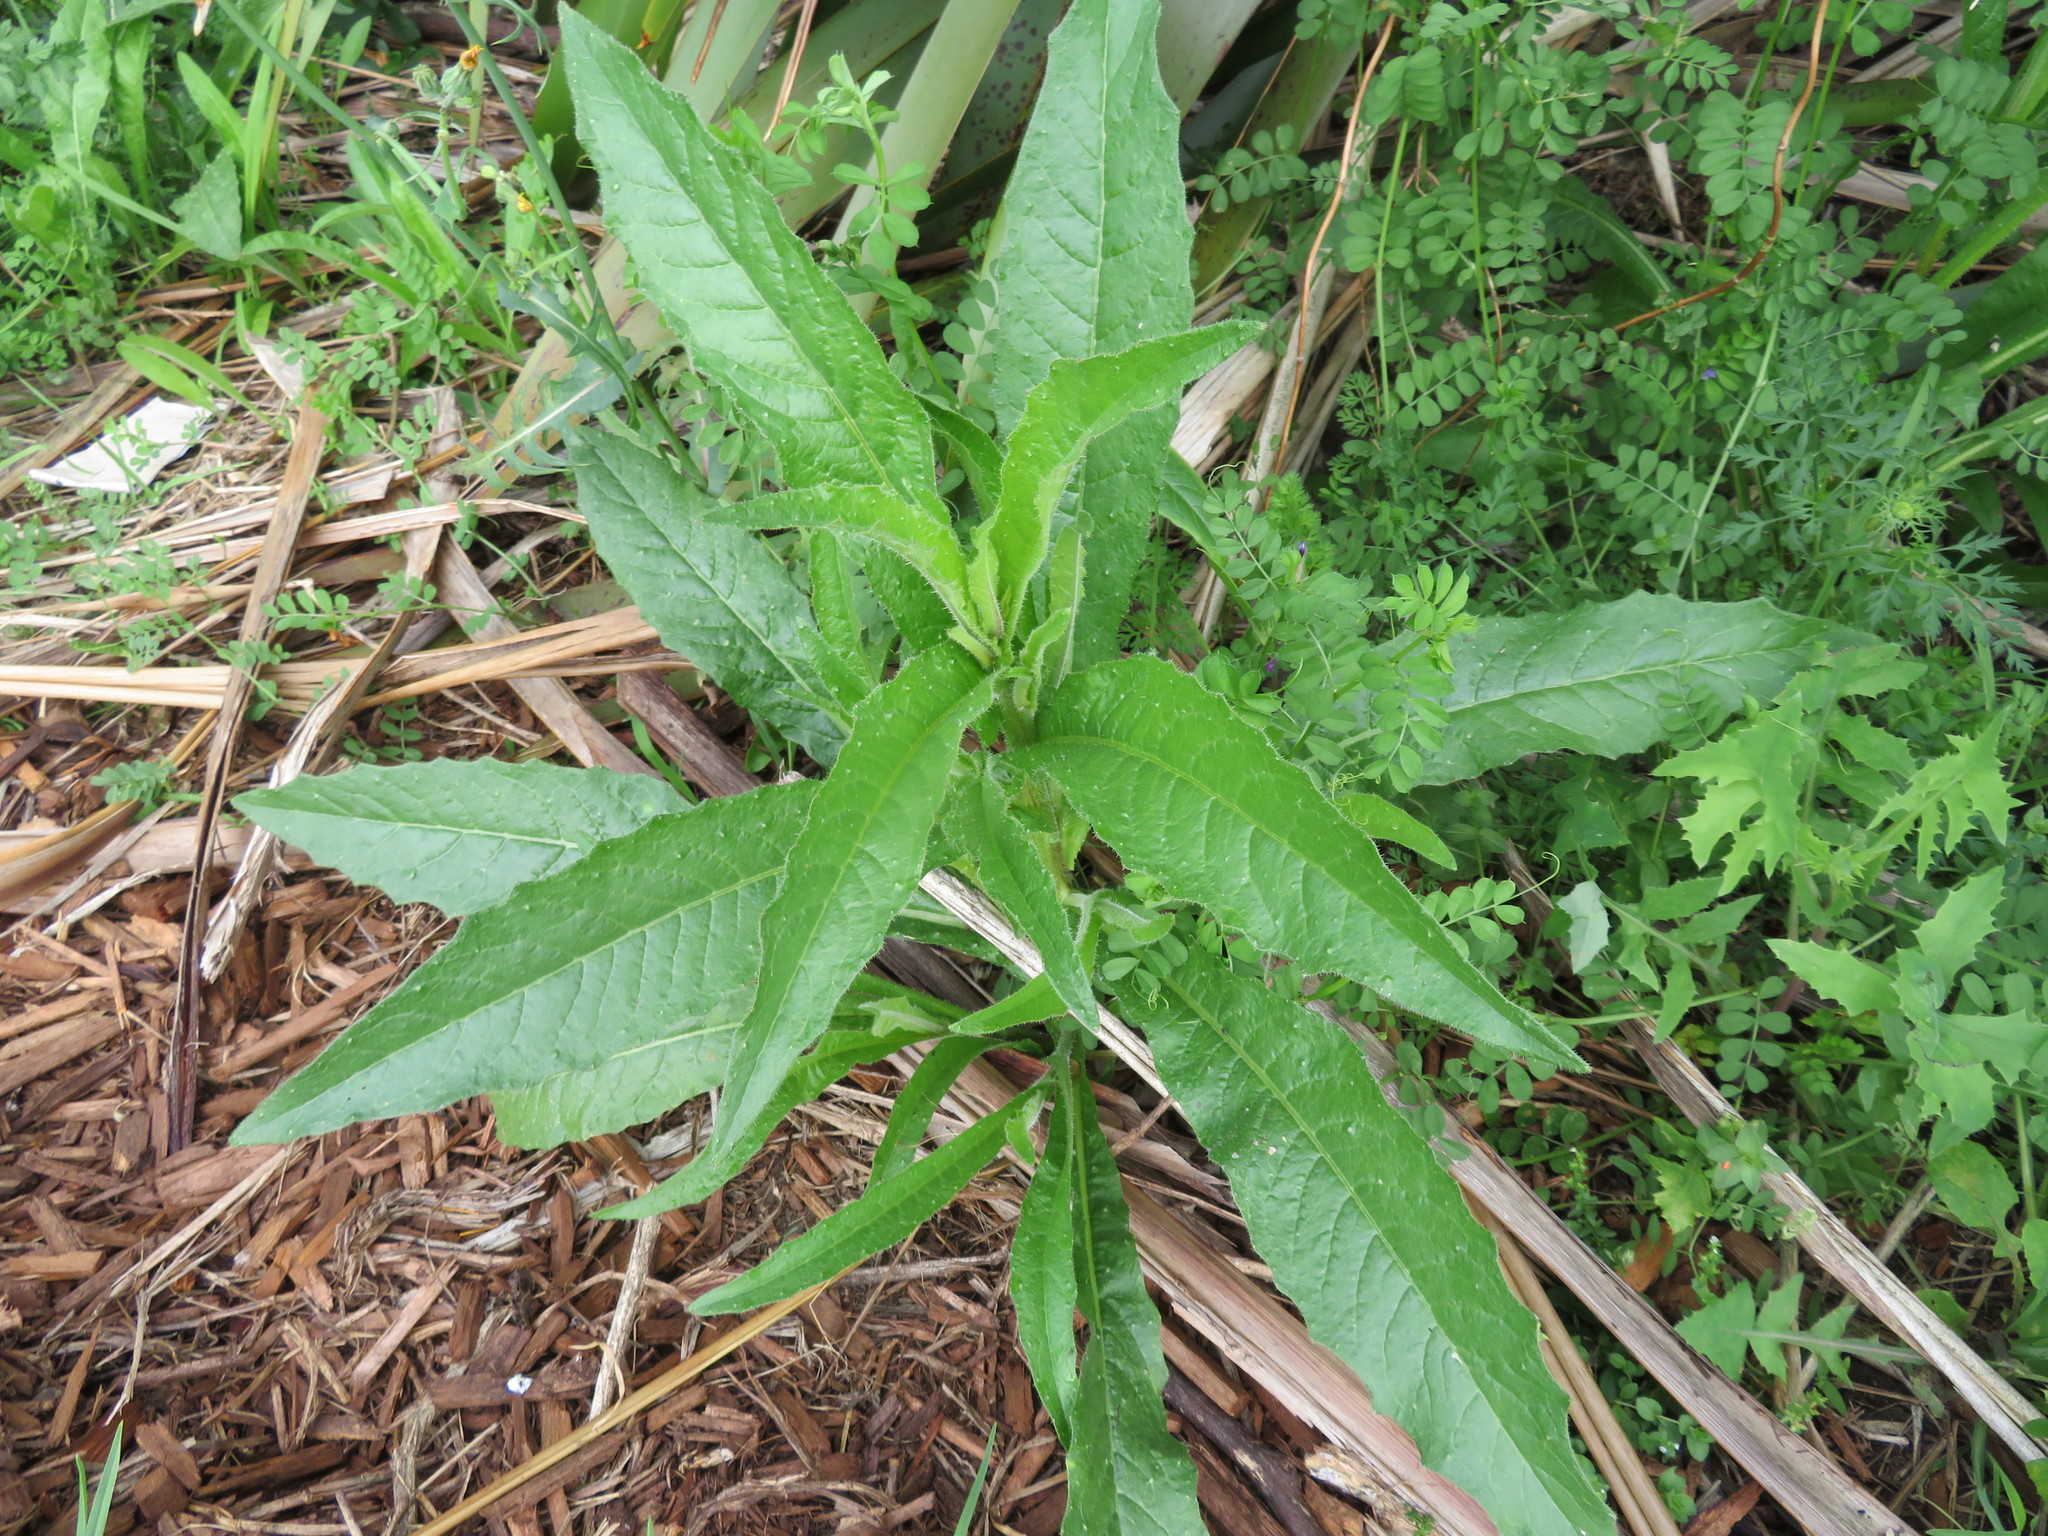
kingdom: Plantae
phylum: Tracheophyta
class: Magnoliopsida
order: Asterales
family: Asteraceae
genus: Helminthotheca
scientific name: Helminthotheca echioides
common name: Ox-tongue
